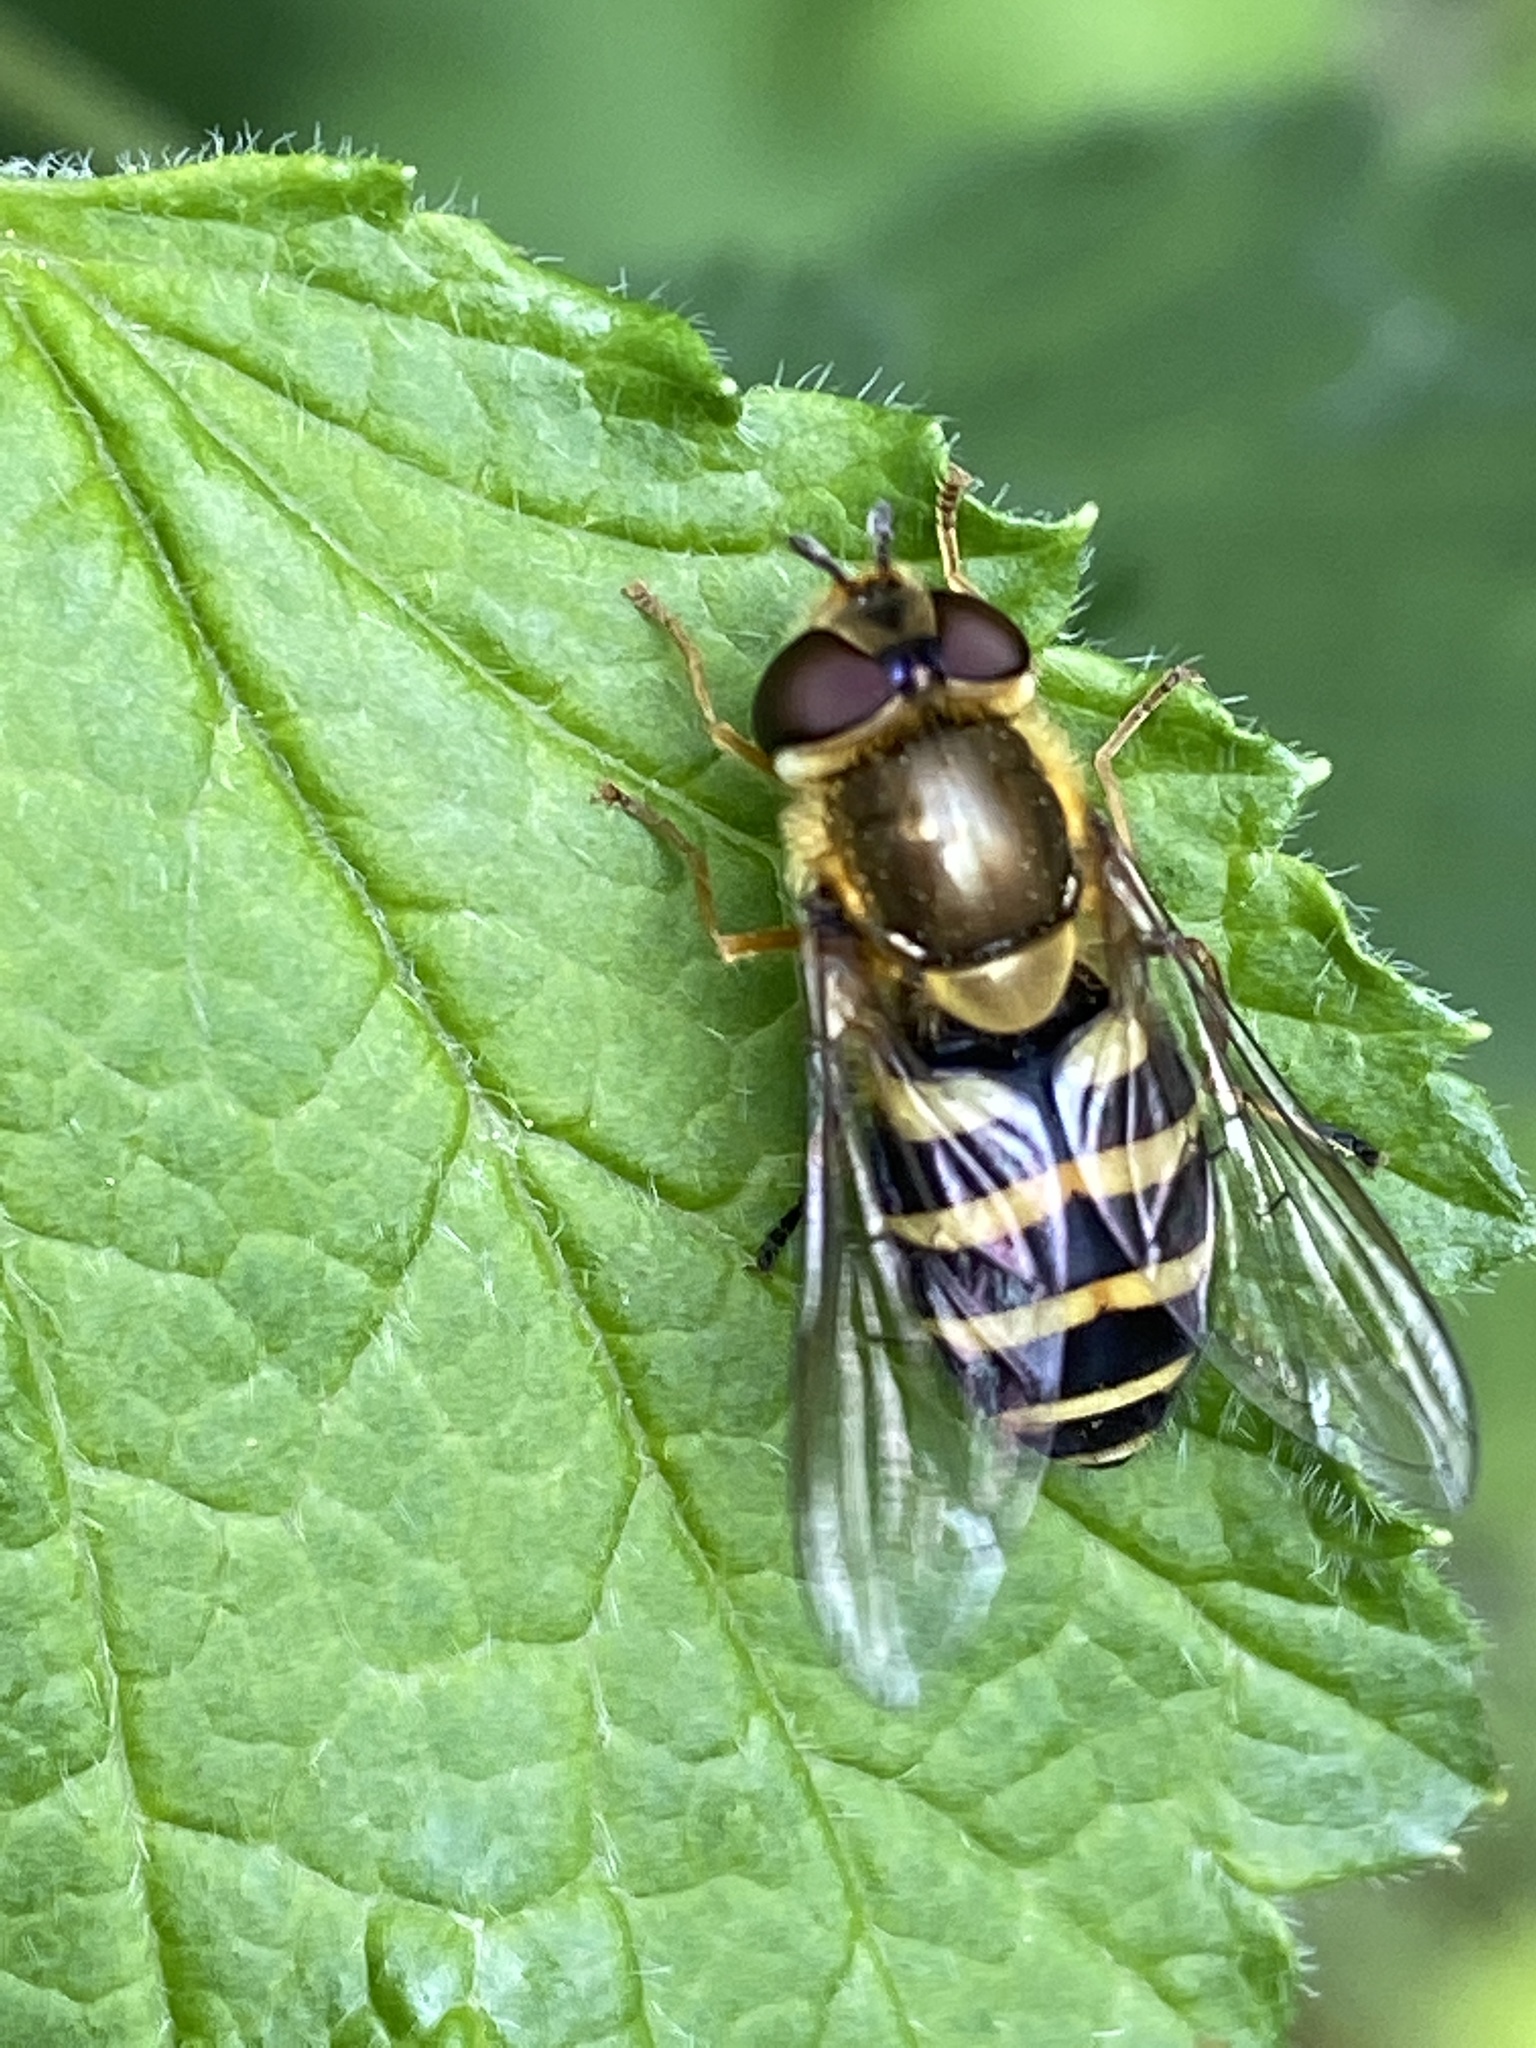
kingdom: Animalia
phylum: Arthropoda
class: Insecta
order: Diptera
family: Syrphidae
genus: Syrphus
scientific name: Syrphus
